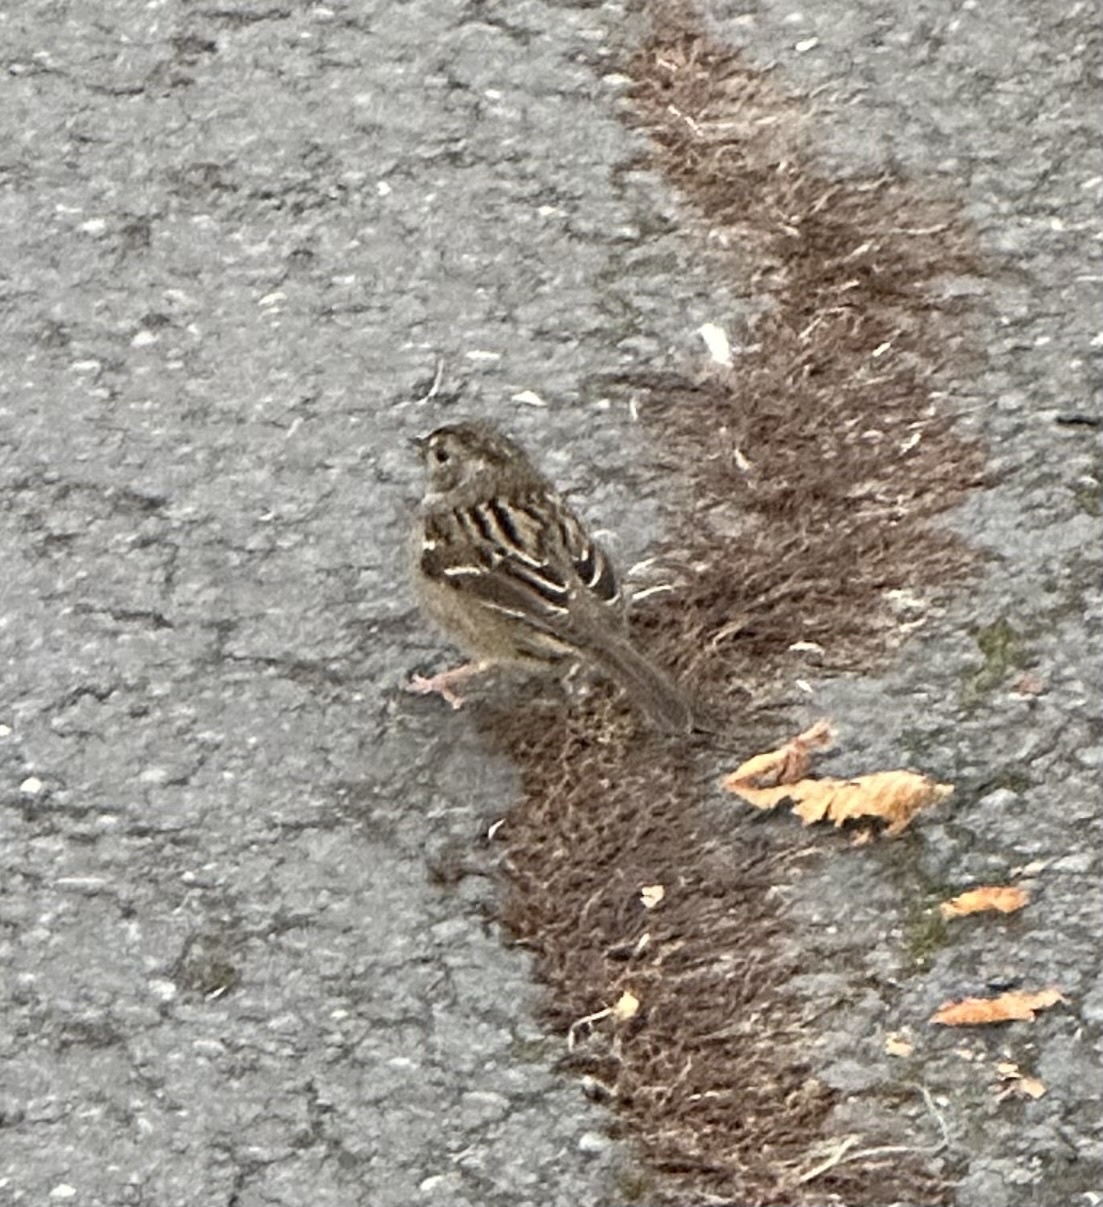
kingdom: Animalia
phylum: Chordata
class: Aves
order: Passeriformes
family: Passerellidae
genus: Zonotrichia
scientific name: Zonotrichia atricapilla
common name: Golden-crowned sparrow
